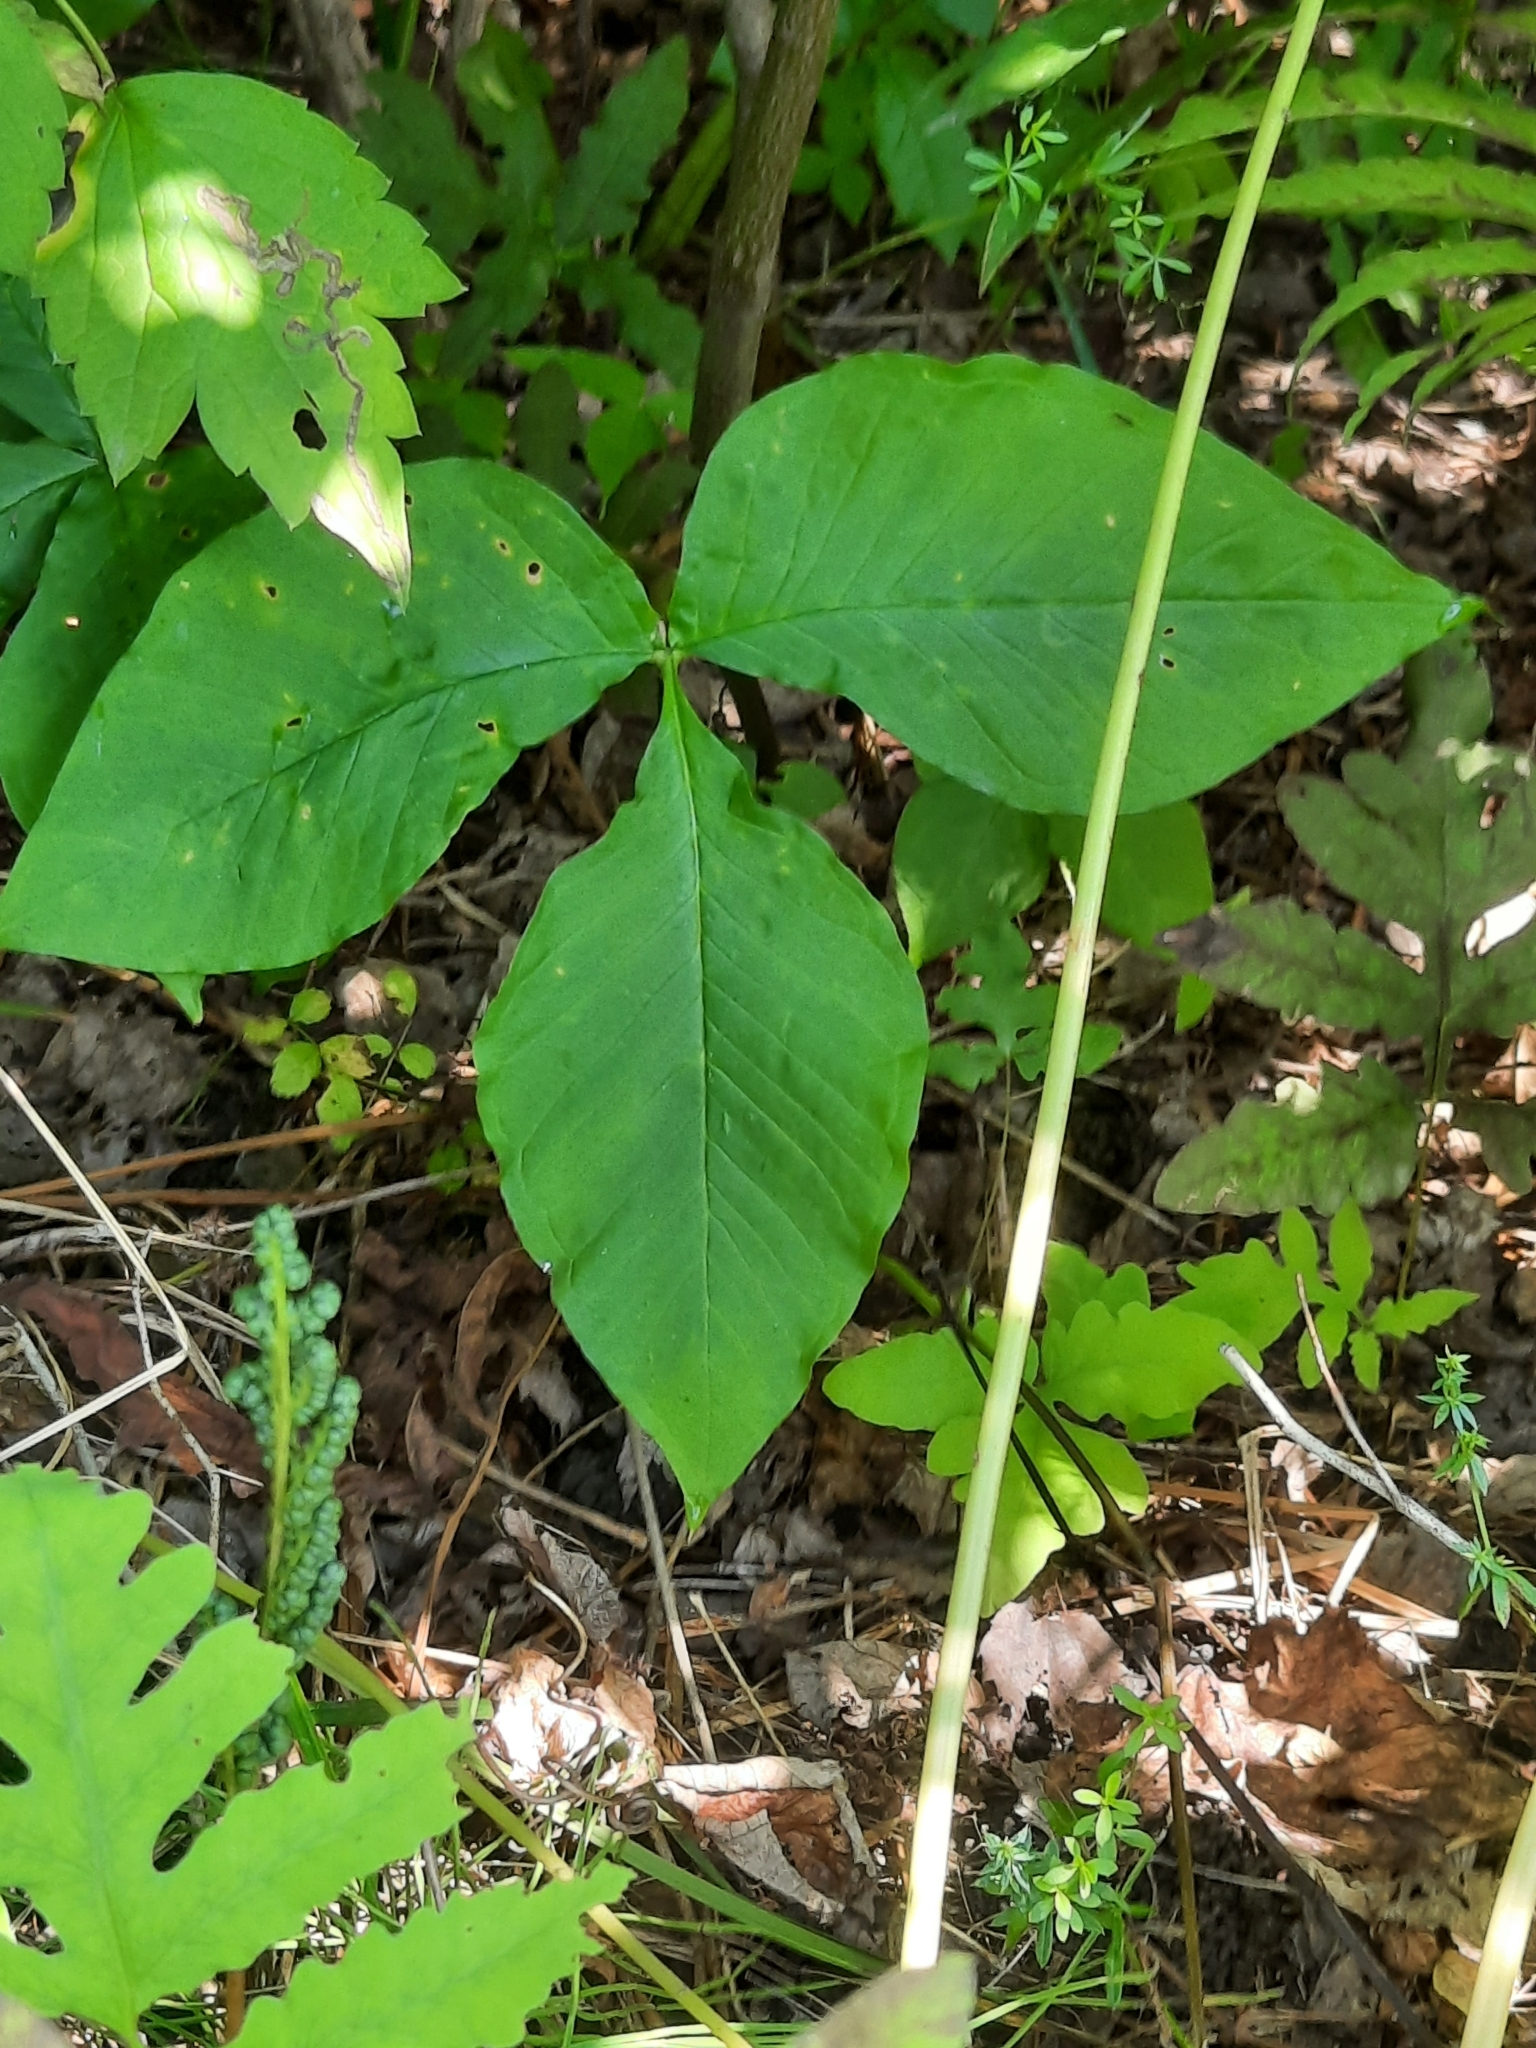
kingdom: Plantae
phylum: Tracheophyta
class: Liliopsida
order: Alismatales
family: Araceae
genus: Arisaema
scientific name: Arisaema triphyllum
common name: Jack-in-the-pulpit
